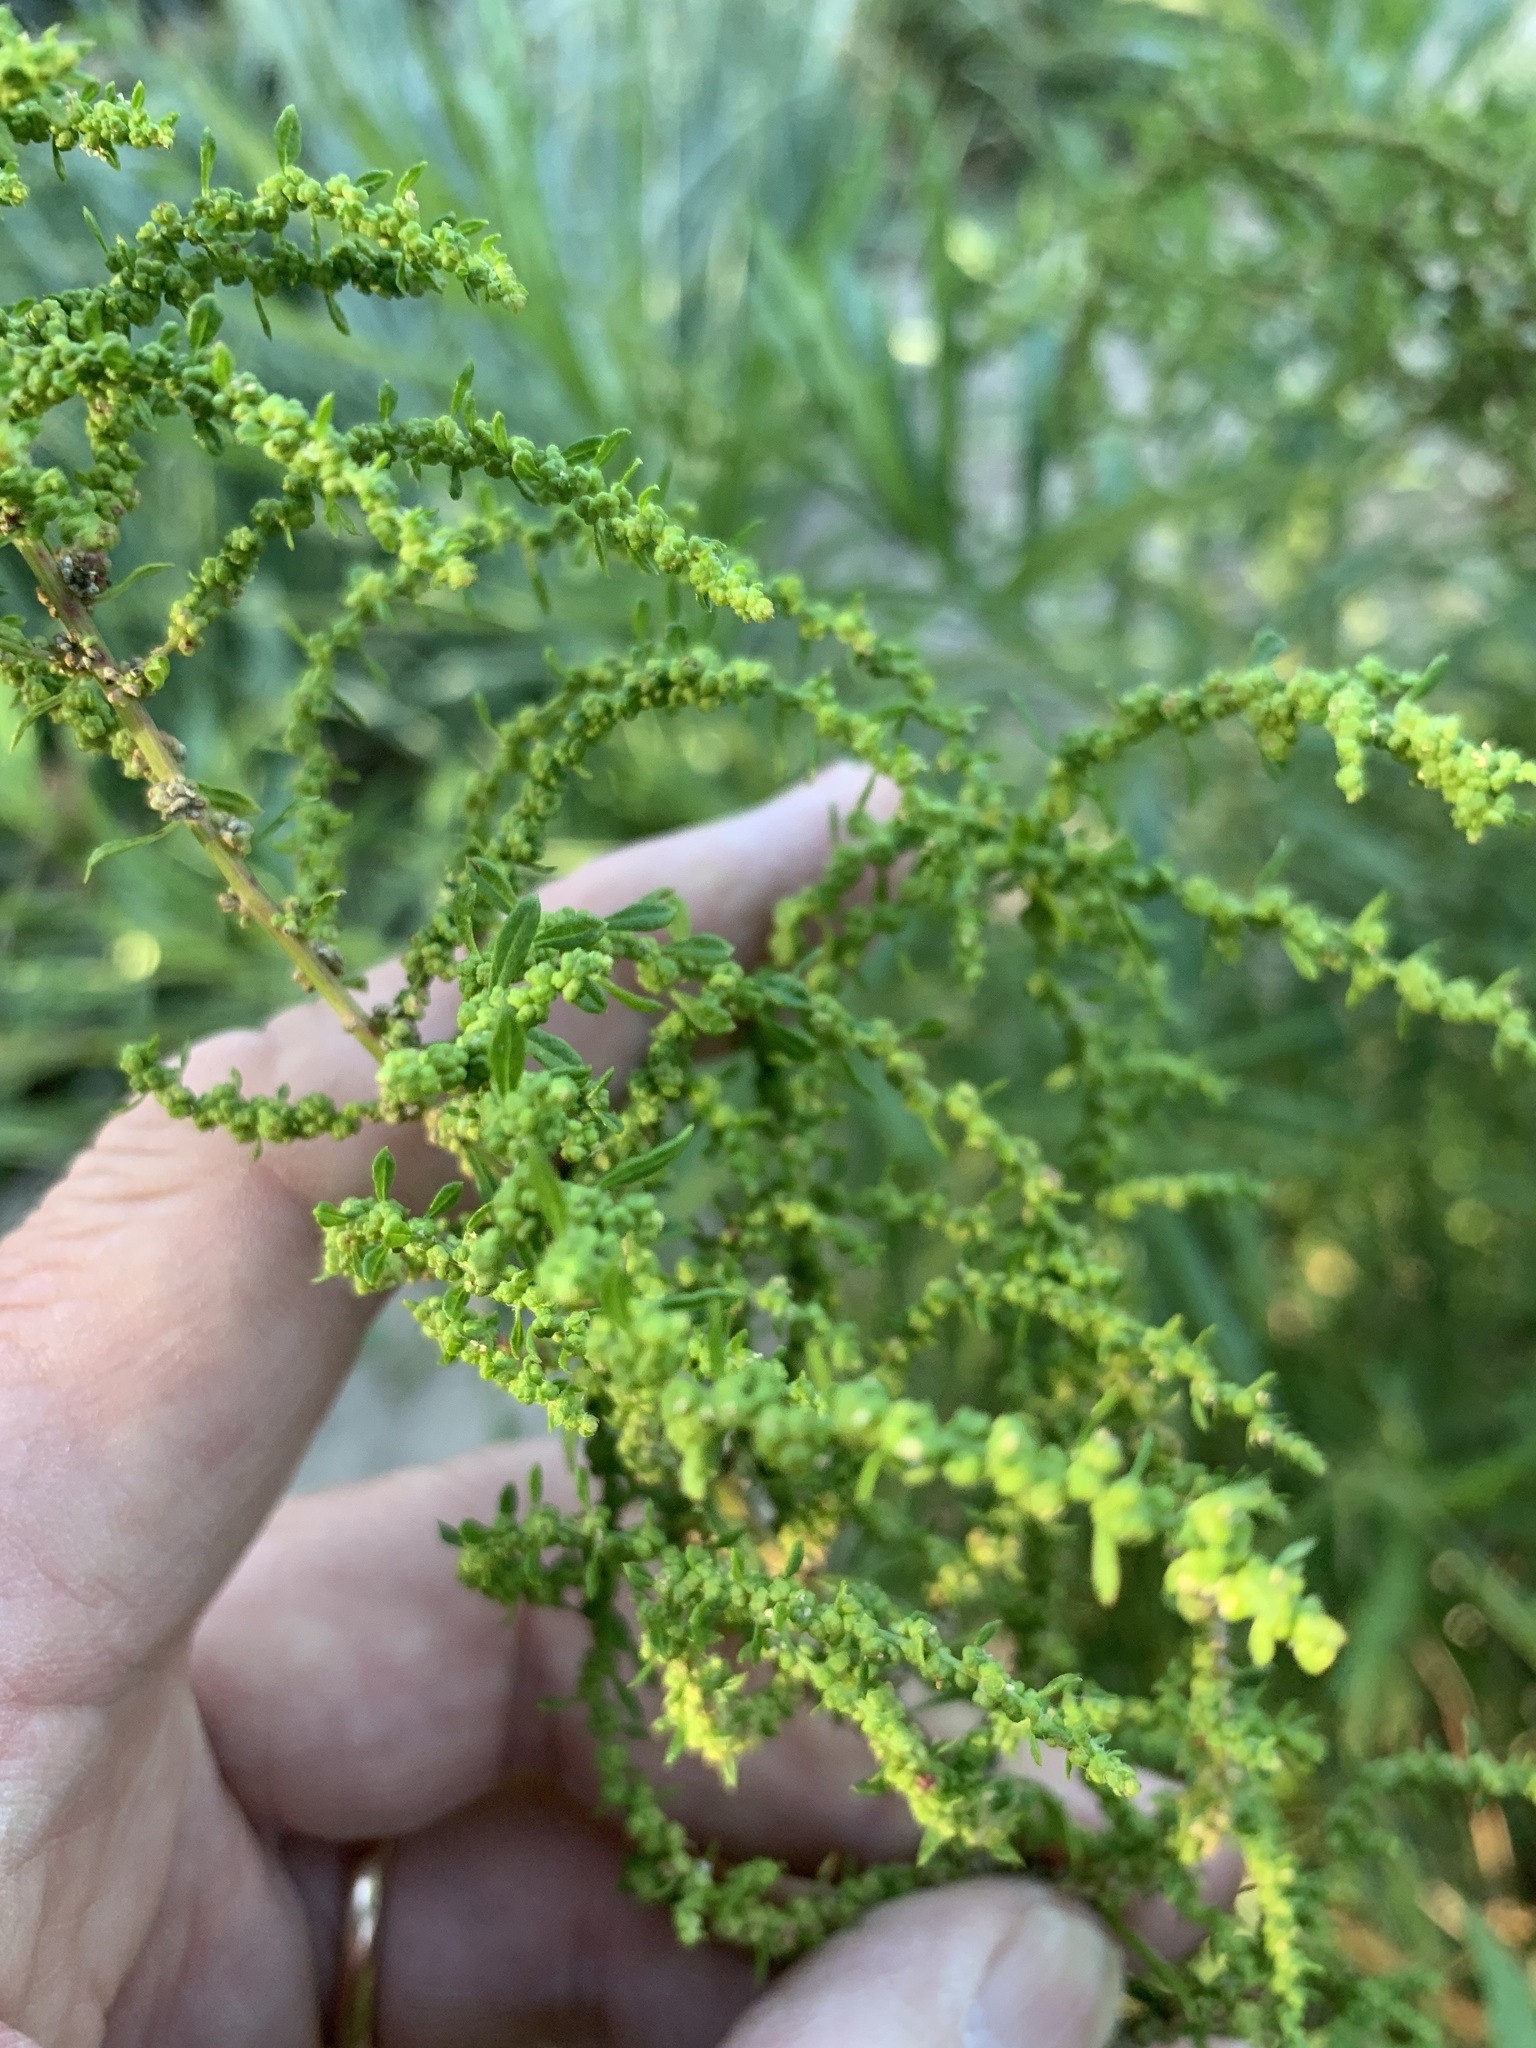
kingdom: Plantae
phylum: Tracheophyta
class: Magnoliopsida
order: Caryophyllales
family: Amaranthaceae
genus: Dysphania
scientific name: Dysphania ambrosioides
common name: Wormseed
